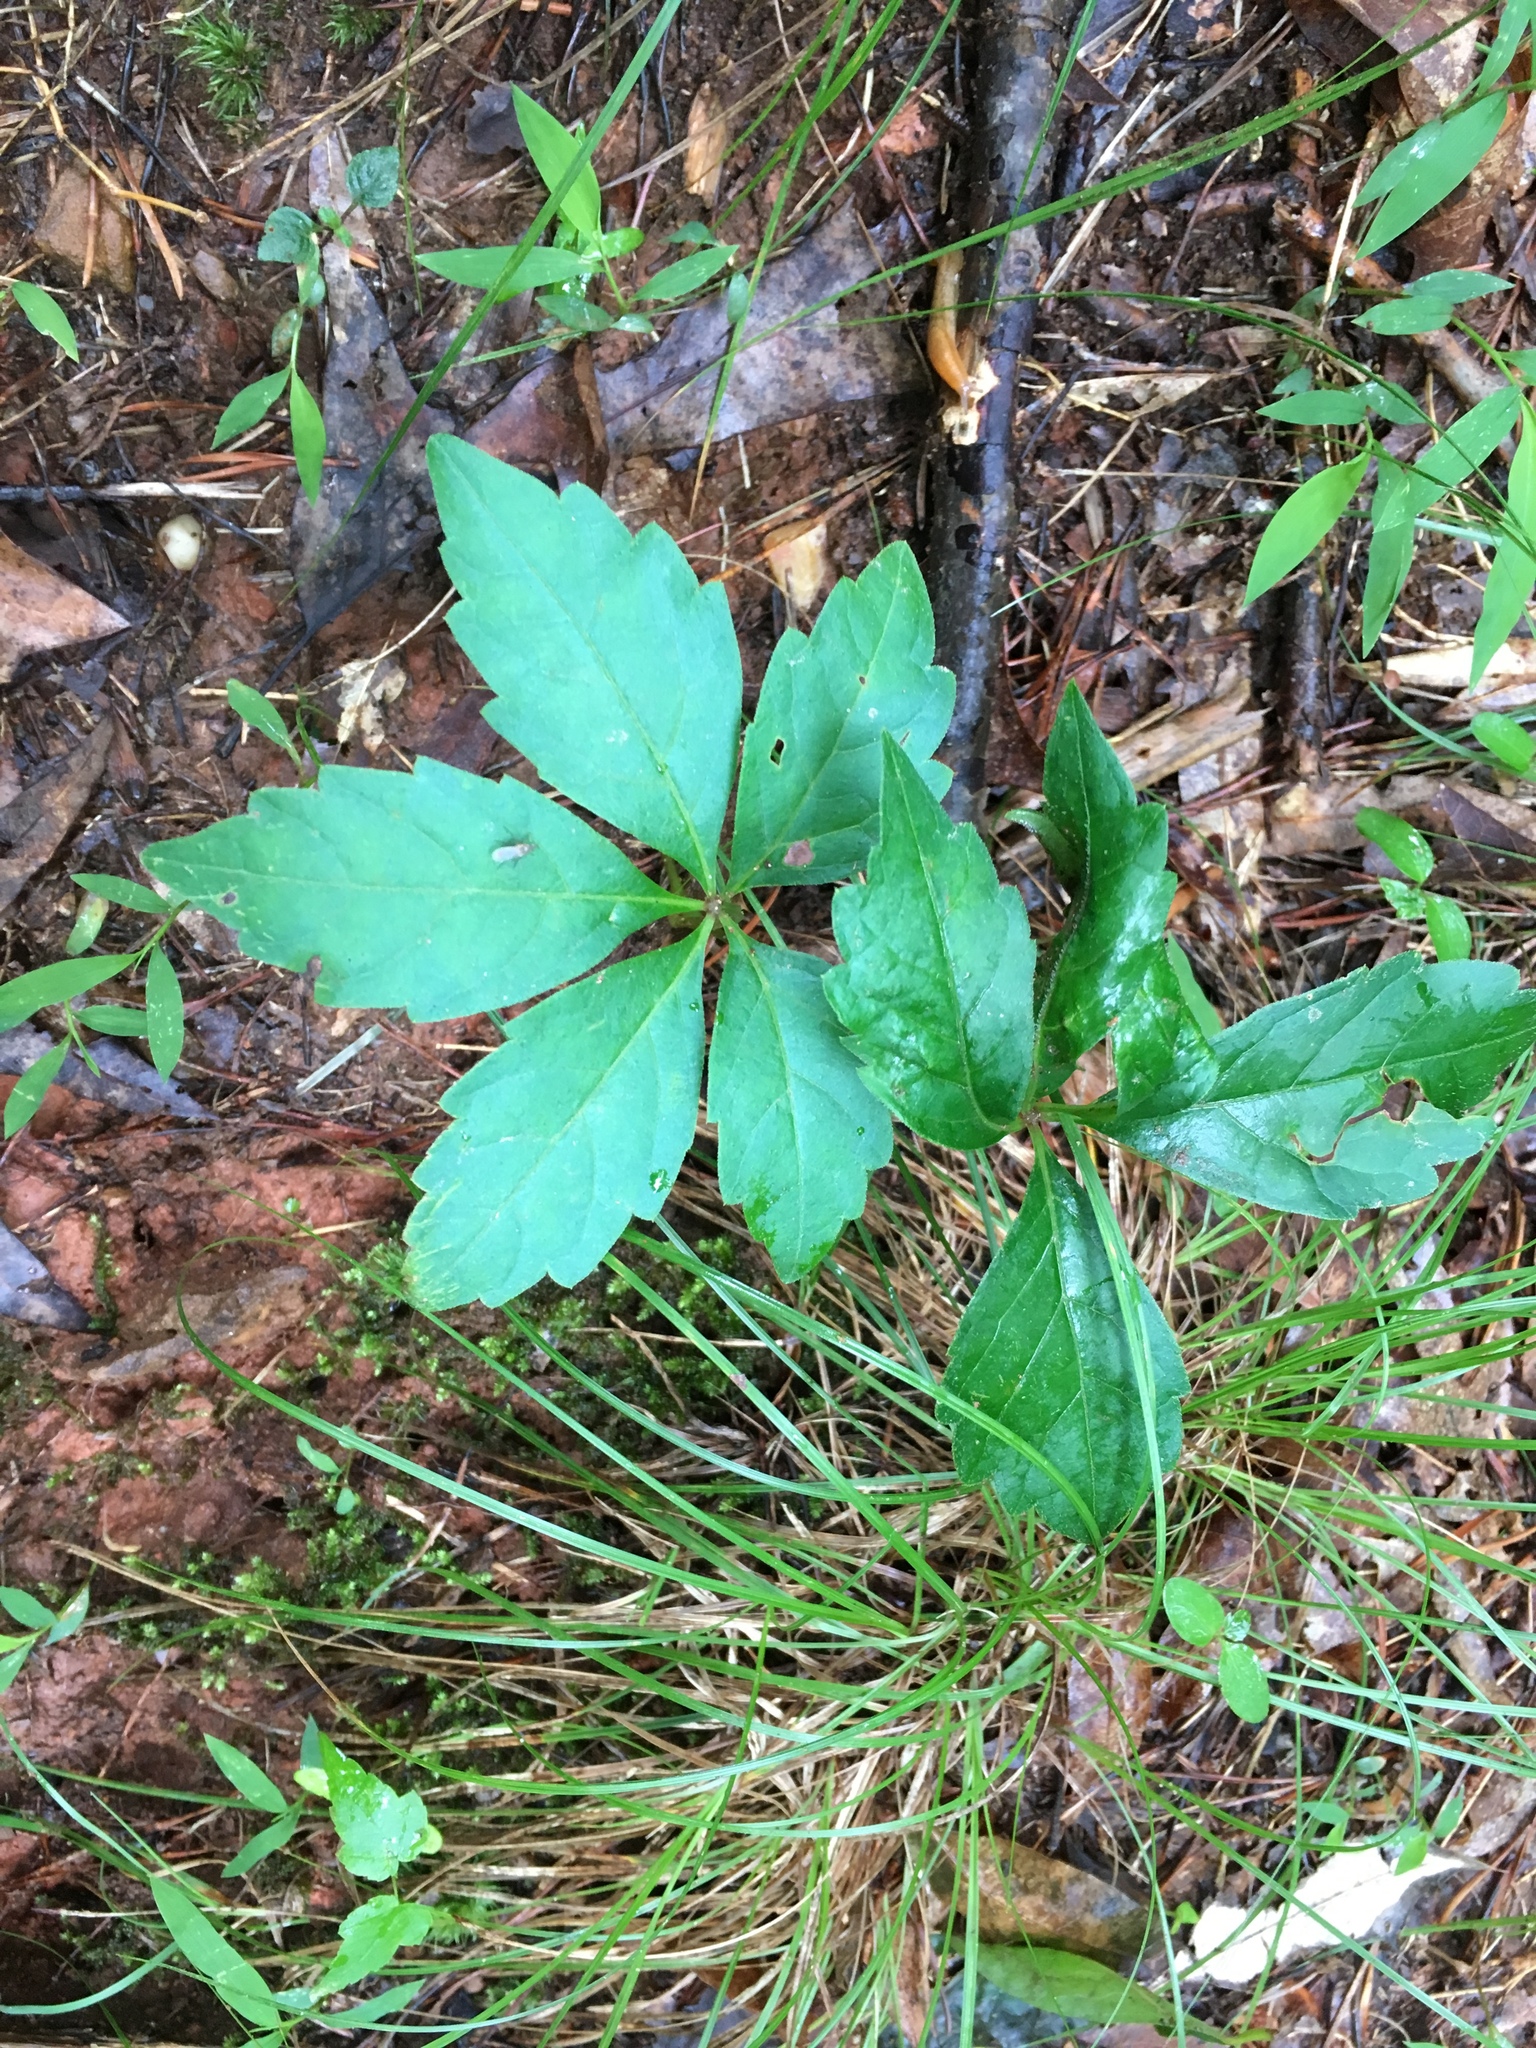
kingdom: Plantae
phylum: Tracheophyta
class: Magnoliopsida
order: Vitales
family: Vitaceae
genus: Parthenocissus
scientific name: Parthenocissus quinquefolia
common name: Virginia-creeper
